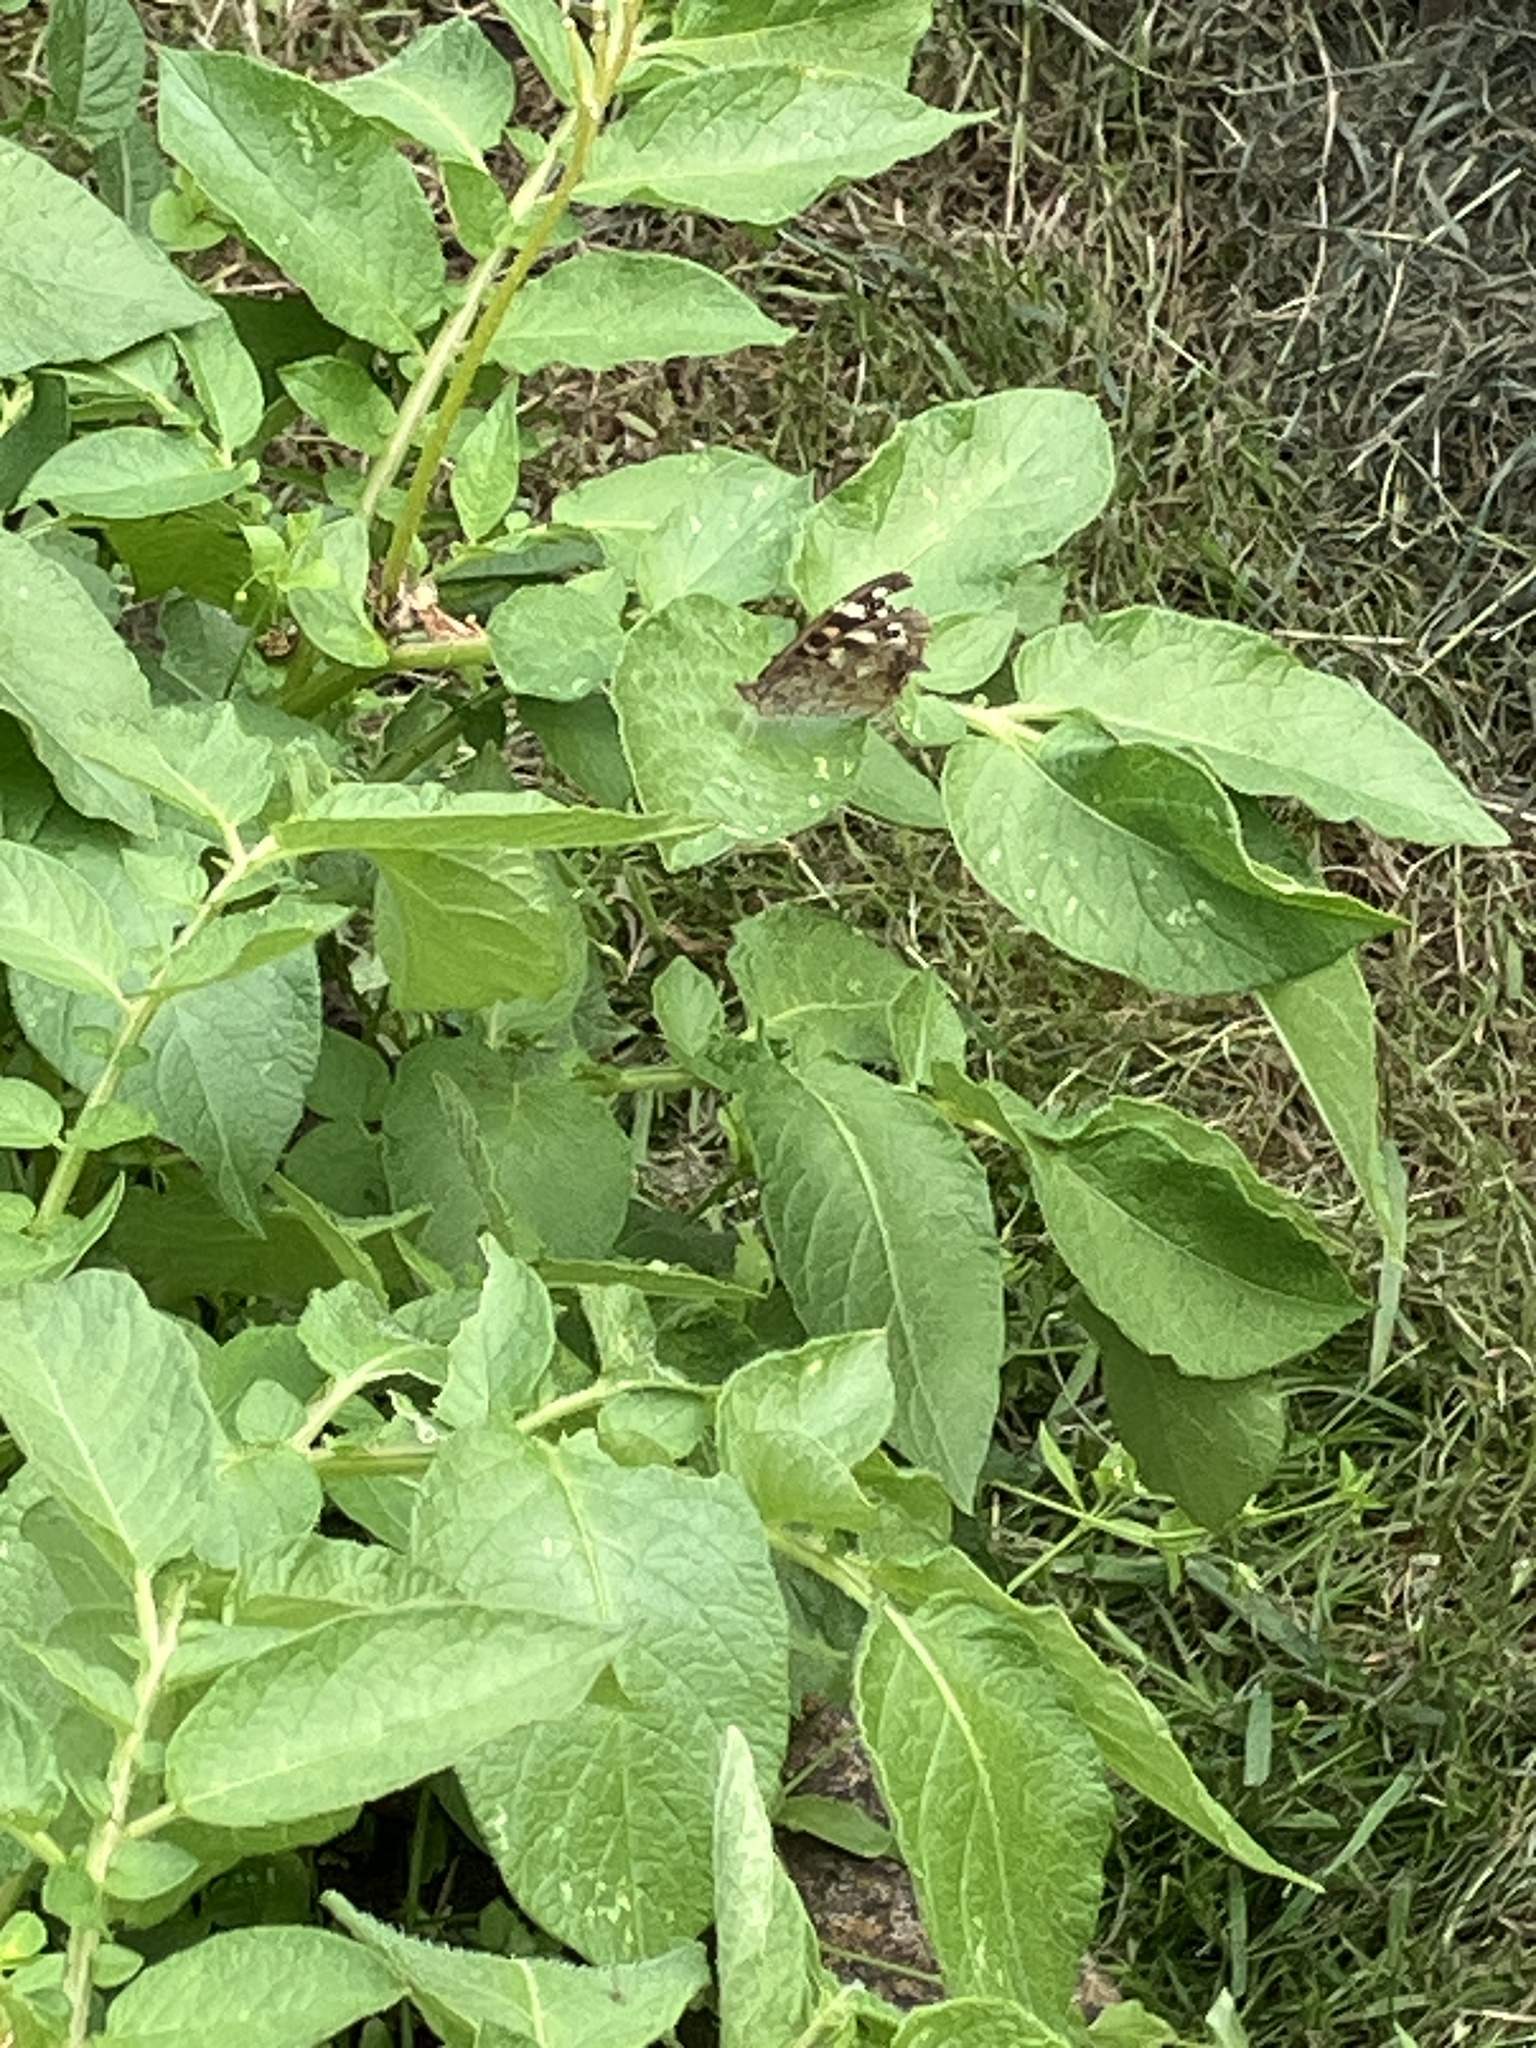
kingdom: Animalia
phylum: Arthropoda
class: Insecta
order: Lepidoptera
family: Nymphalidae
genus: Pararge
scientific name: Pararge aegeria
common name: Speckled wood
